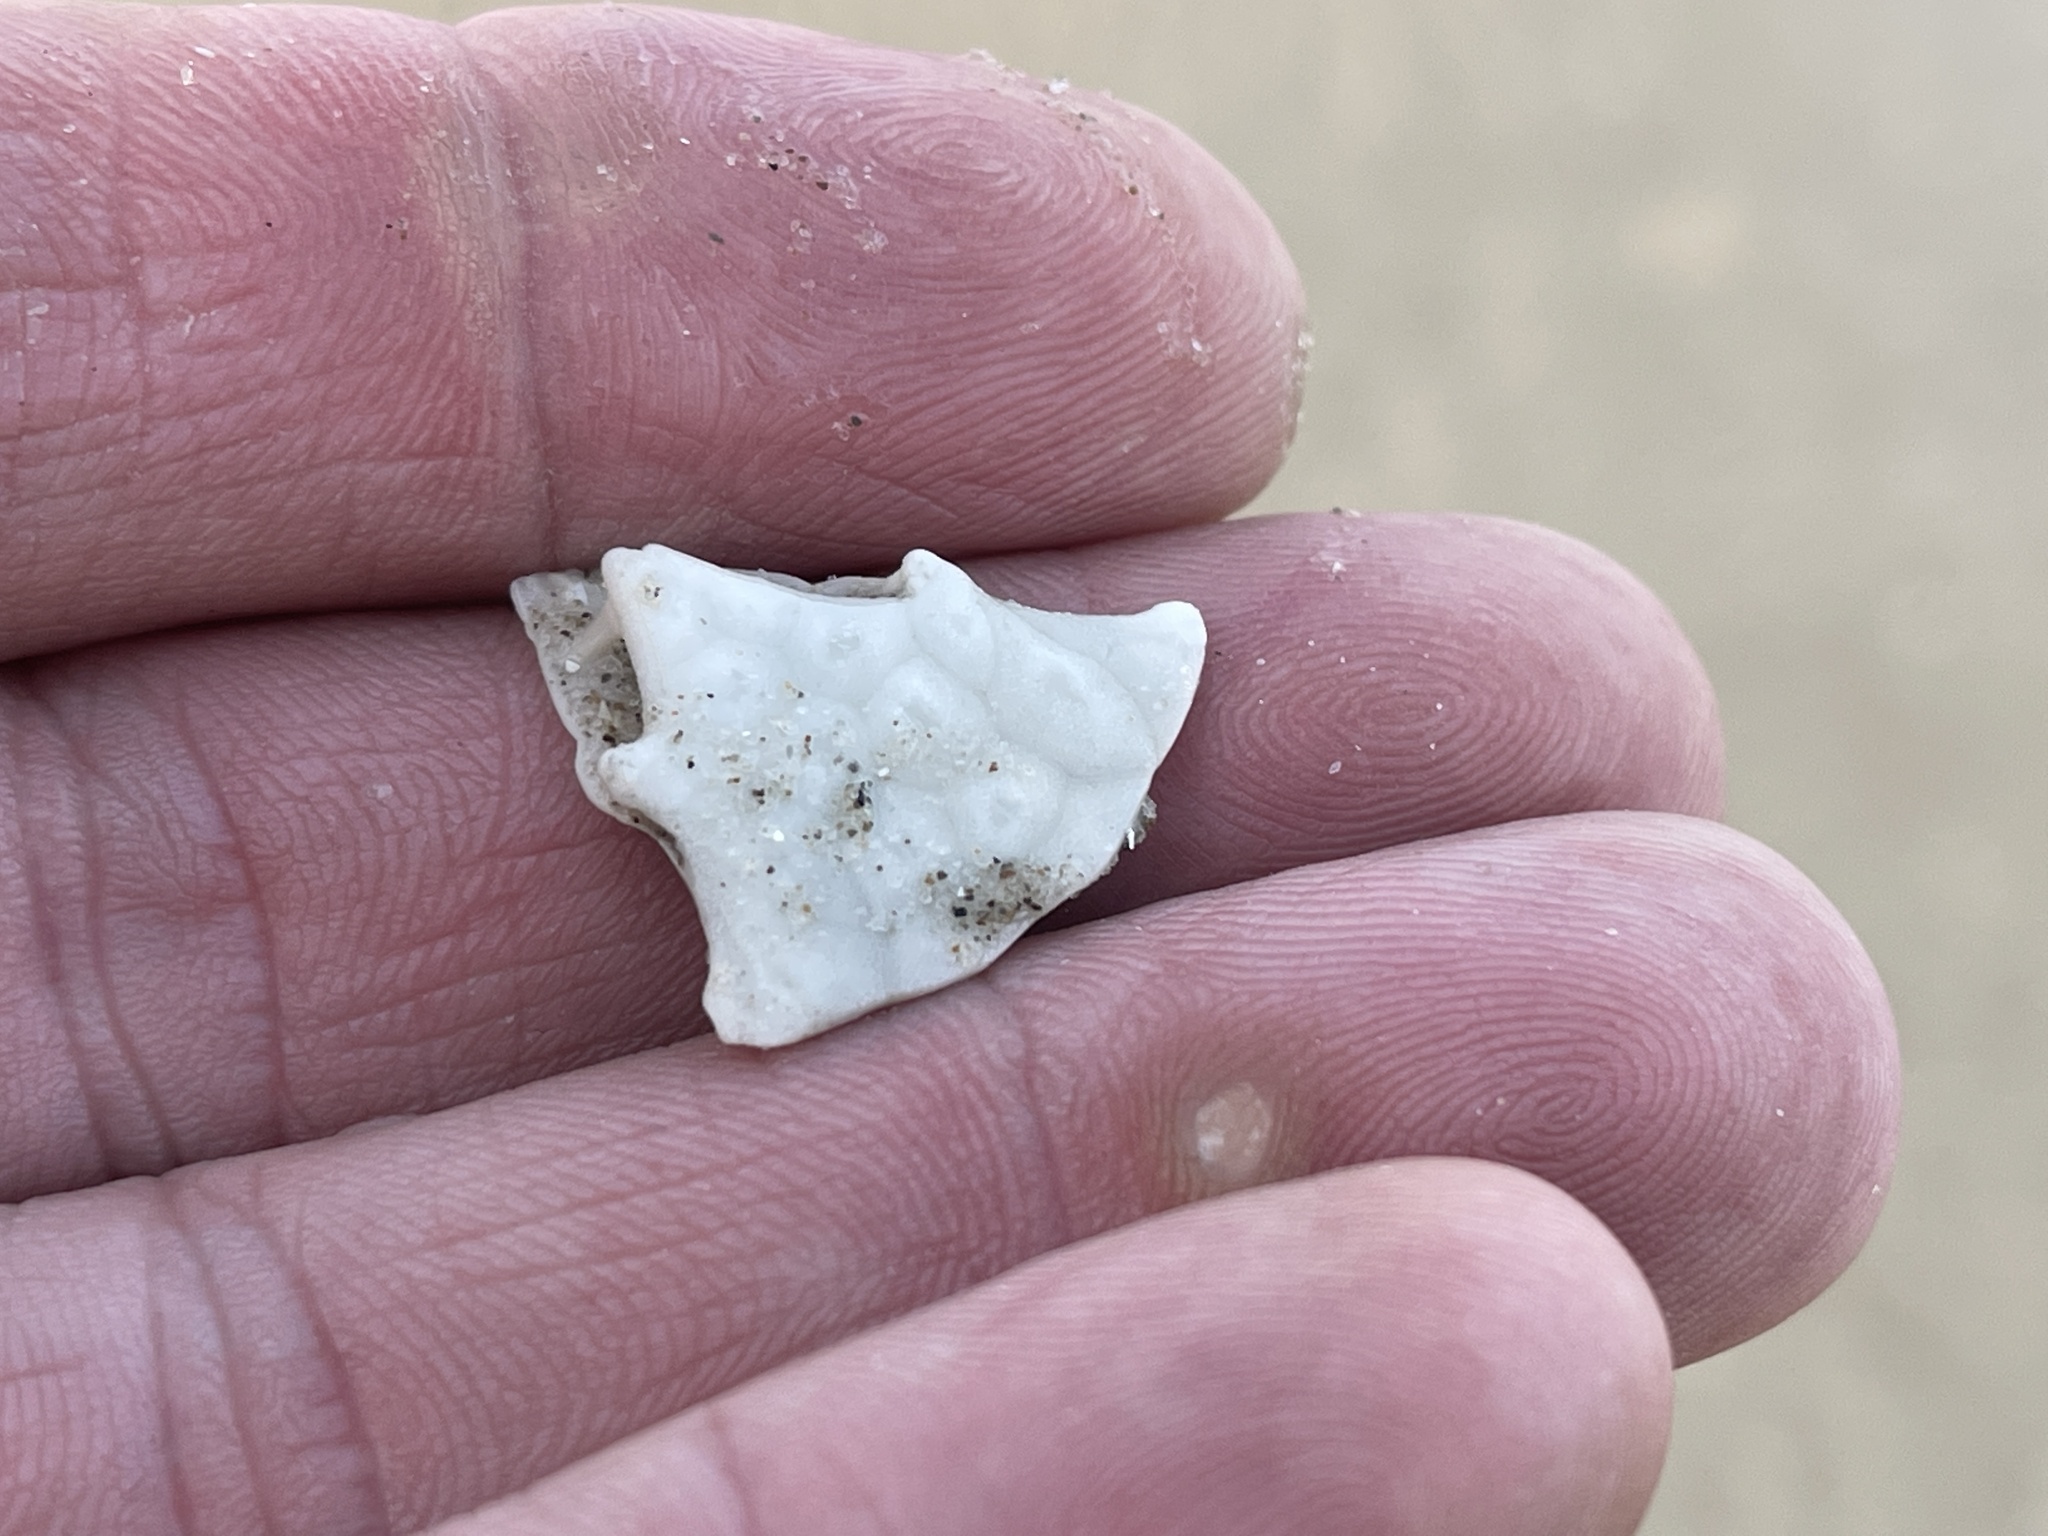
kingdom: Animalia
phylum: Echinodermata
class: Echinoidea
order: Echinolampadacea
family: Mellitidae
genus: Mellita
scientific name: Mellita quinquiesperforata
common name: Sand dollar
